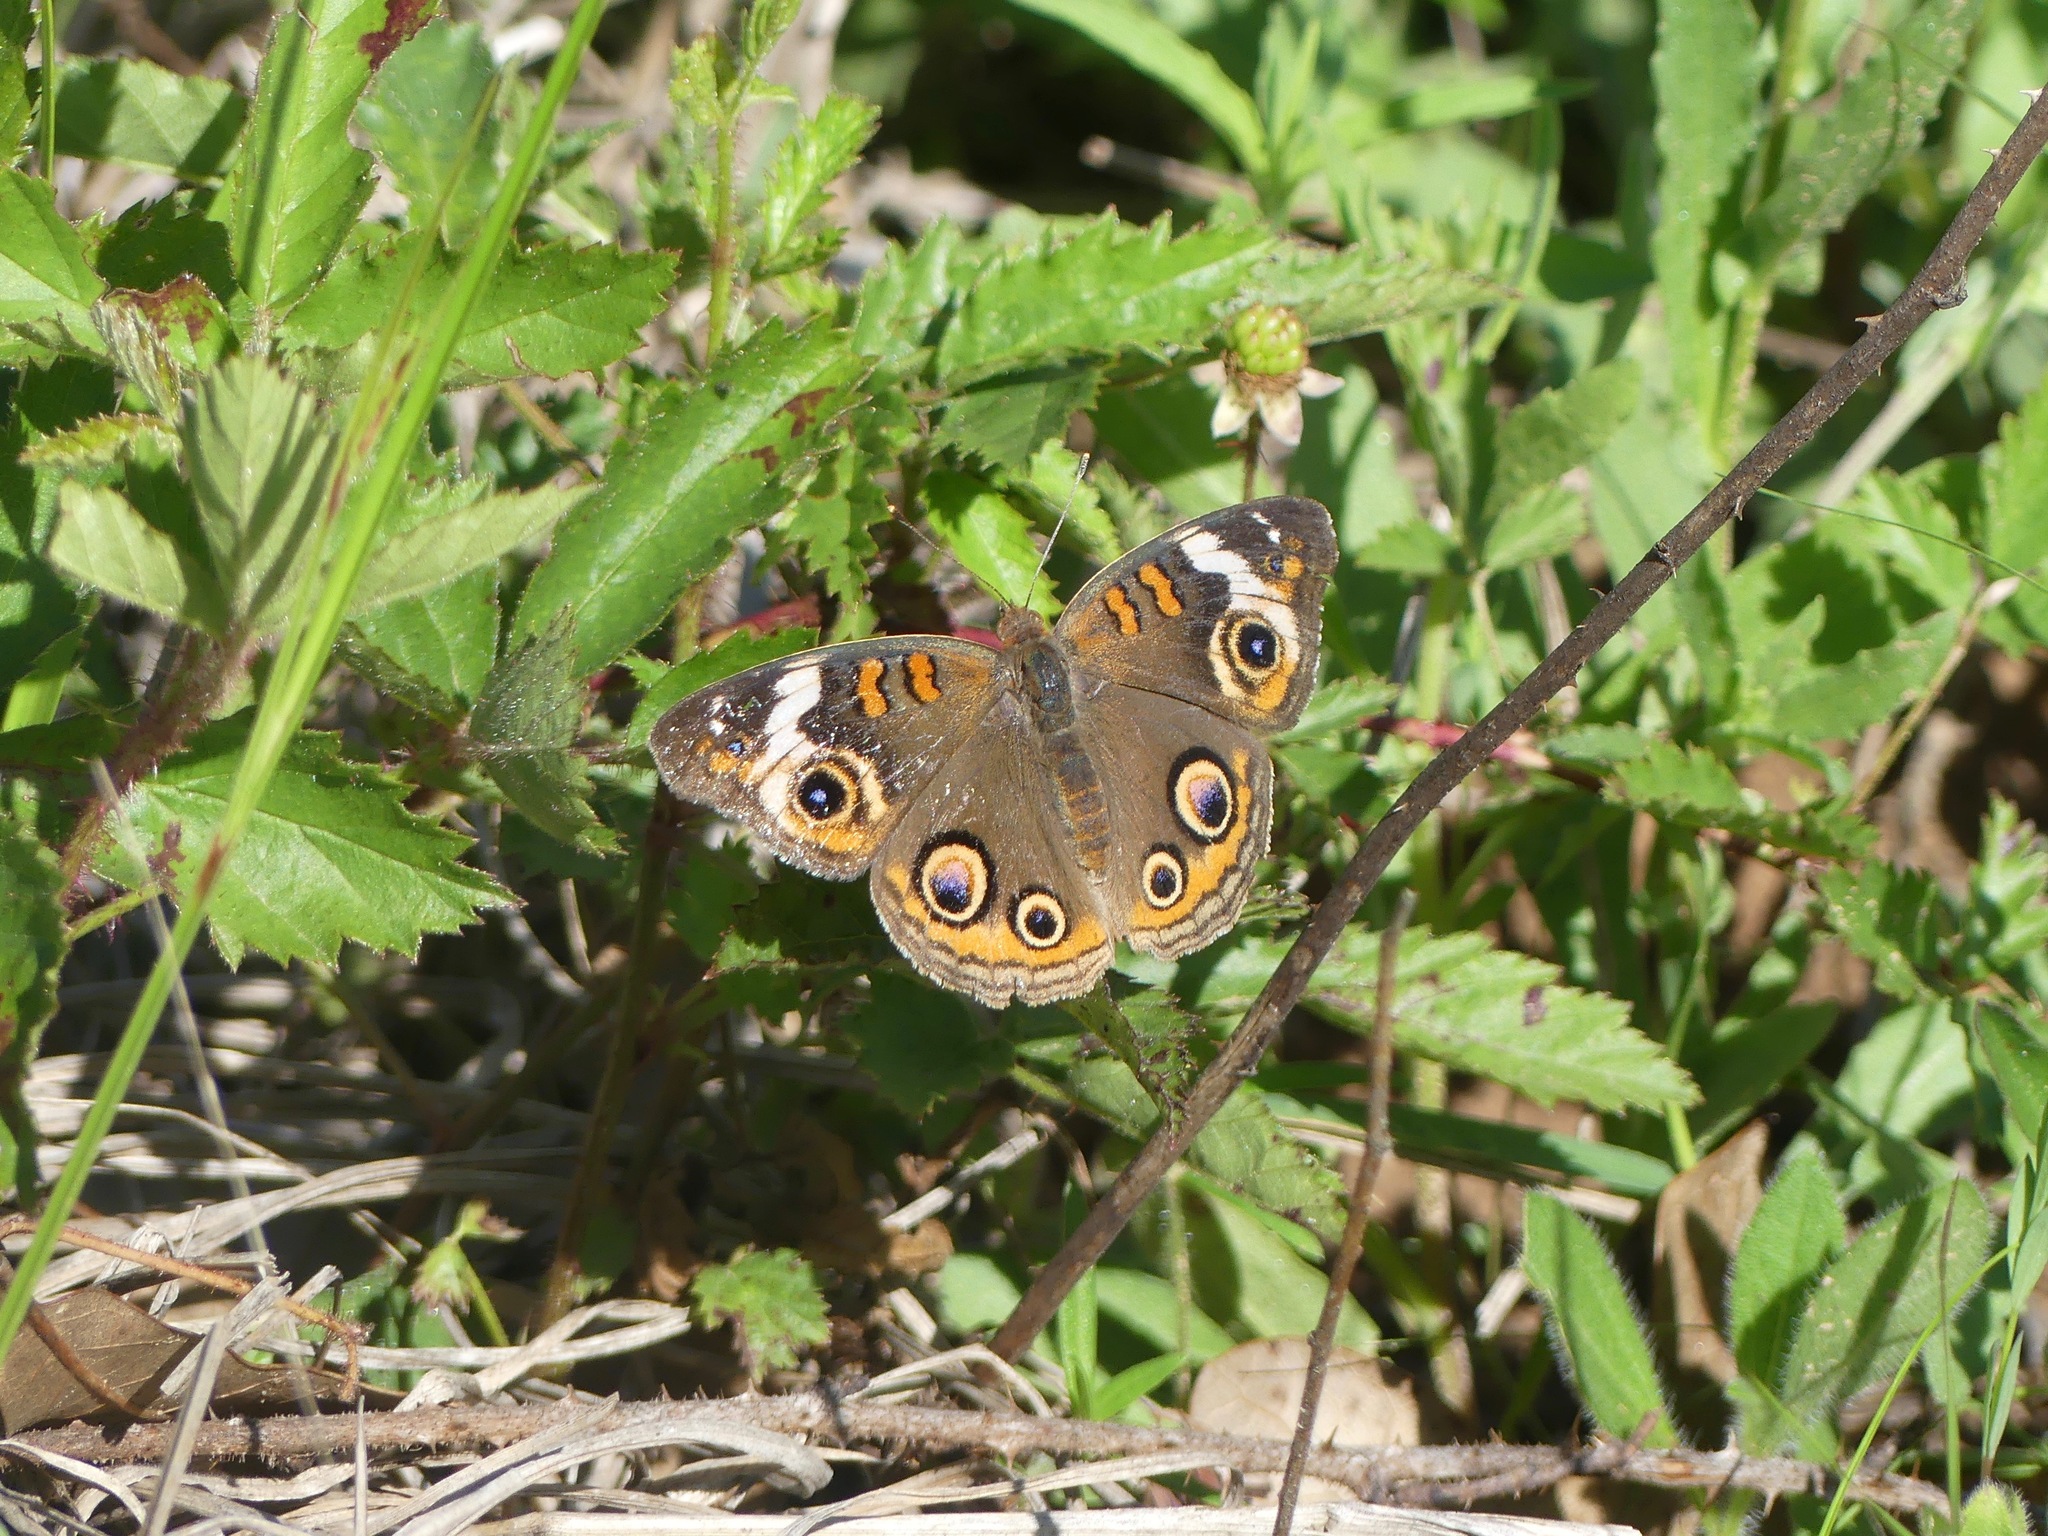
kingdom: Animalia
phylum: Arthropoda
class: Insecta
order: Lepidoptera
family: Nymphalidae
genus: Junonia
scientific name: Junonia coenia
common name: Common buckeye
